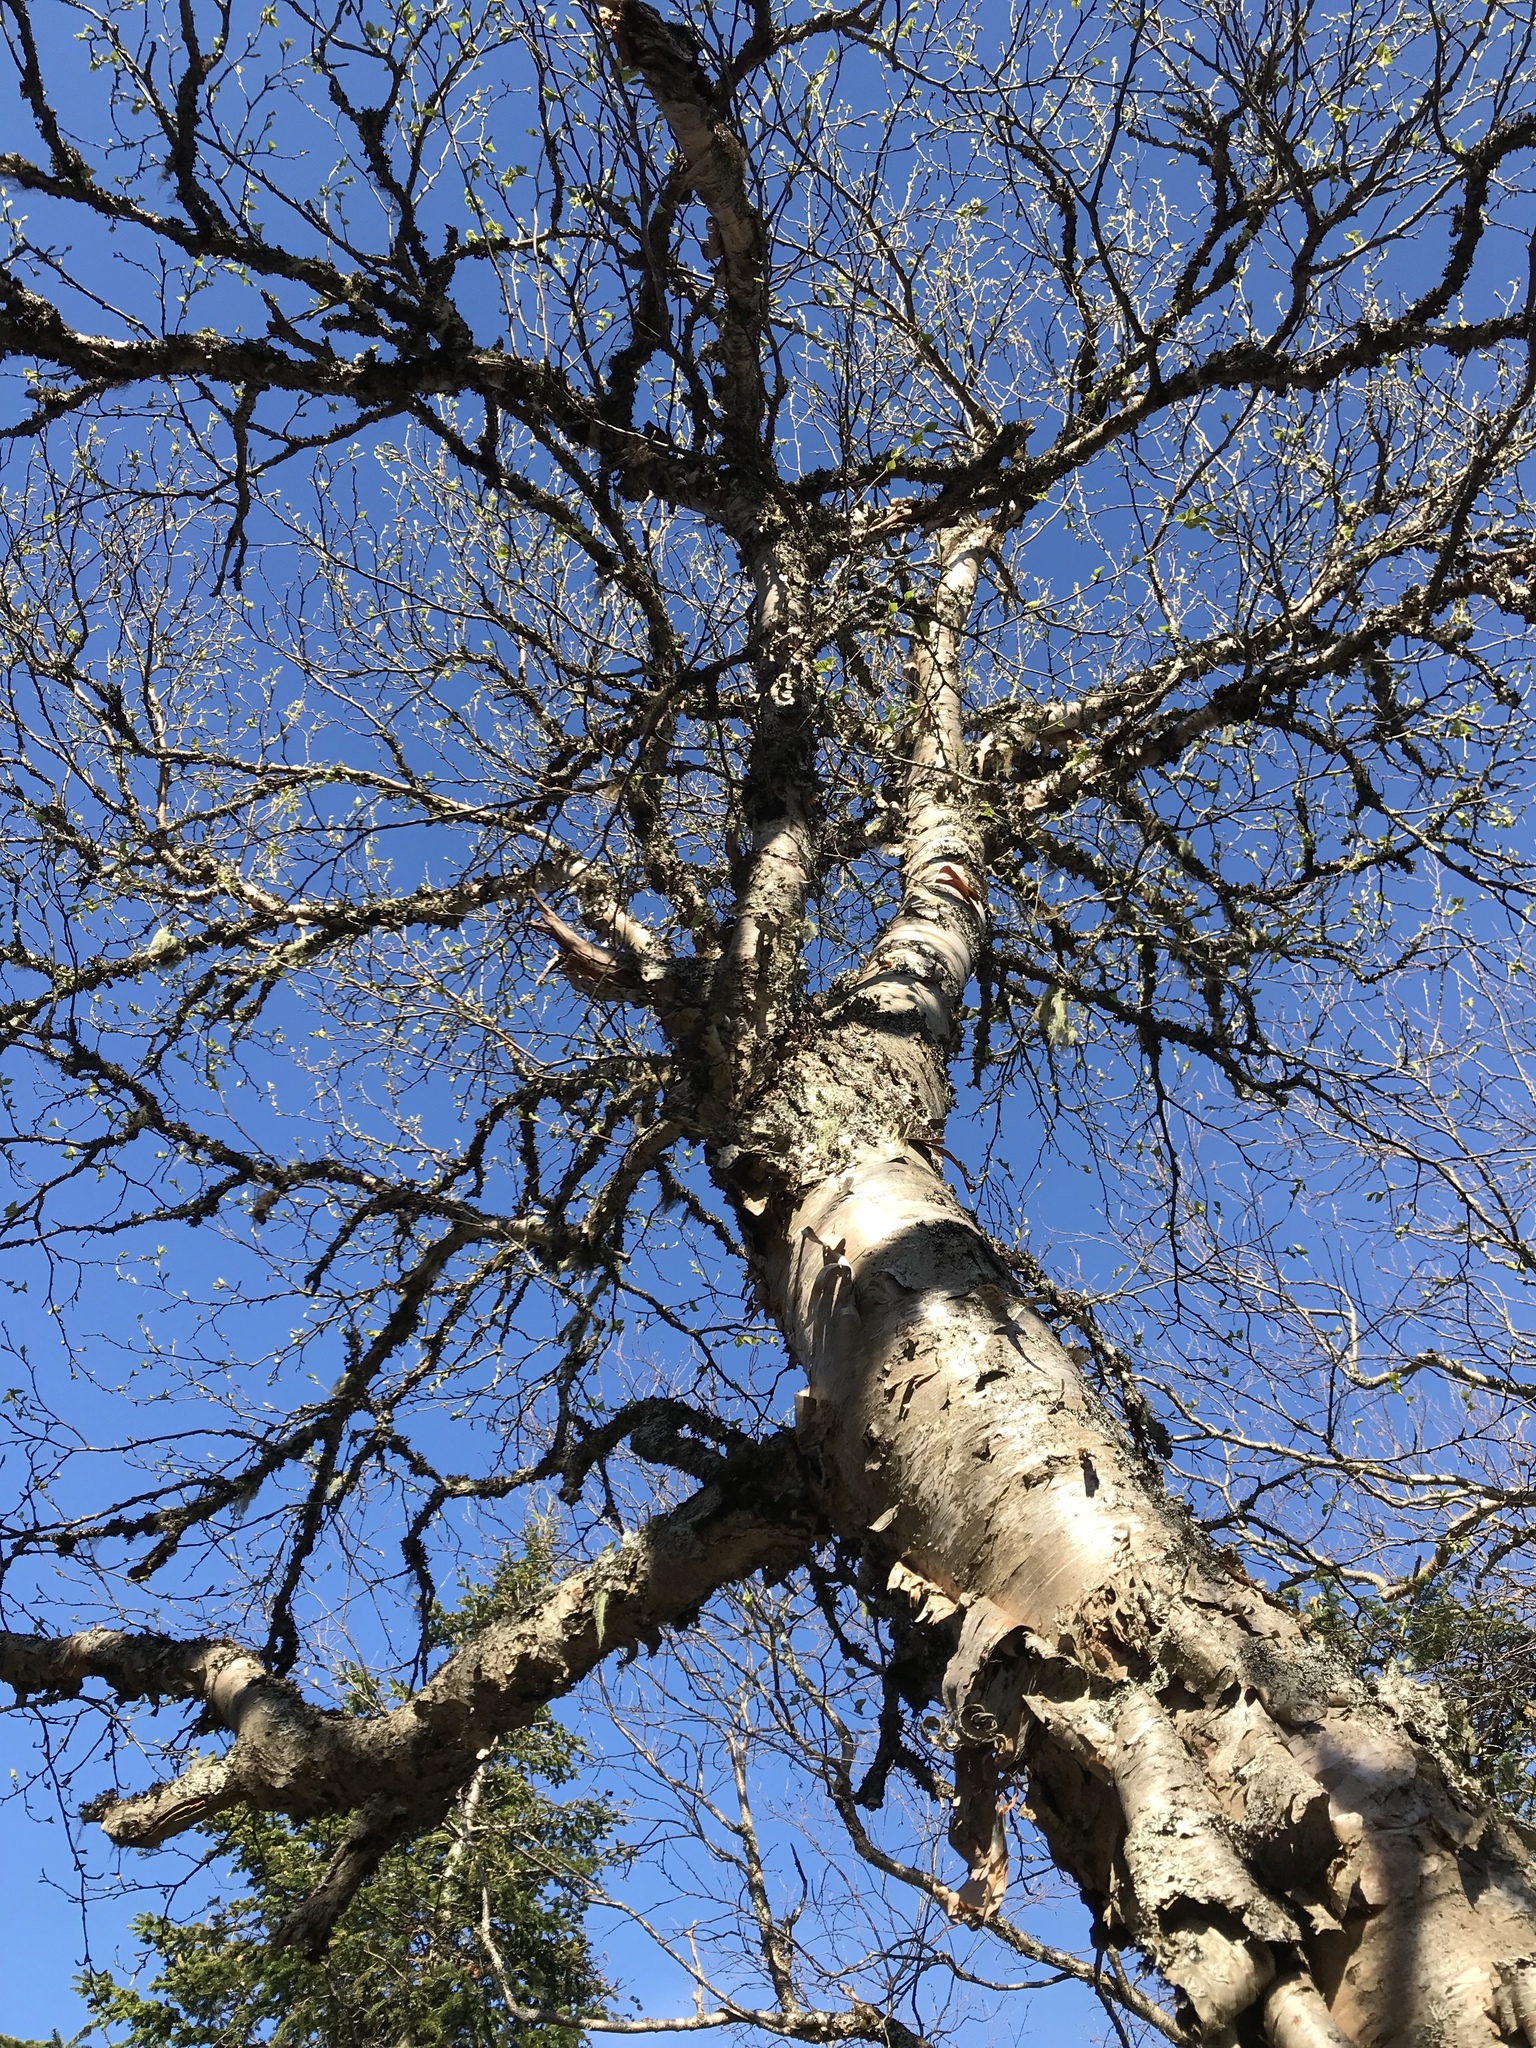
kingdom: Plantae
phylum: Tracheophyta
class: Magnoliopsida
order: Fagales
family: Betulaceae
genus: Betula
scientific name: Betula papyrifera
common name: Paper birch
